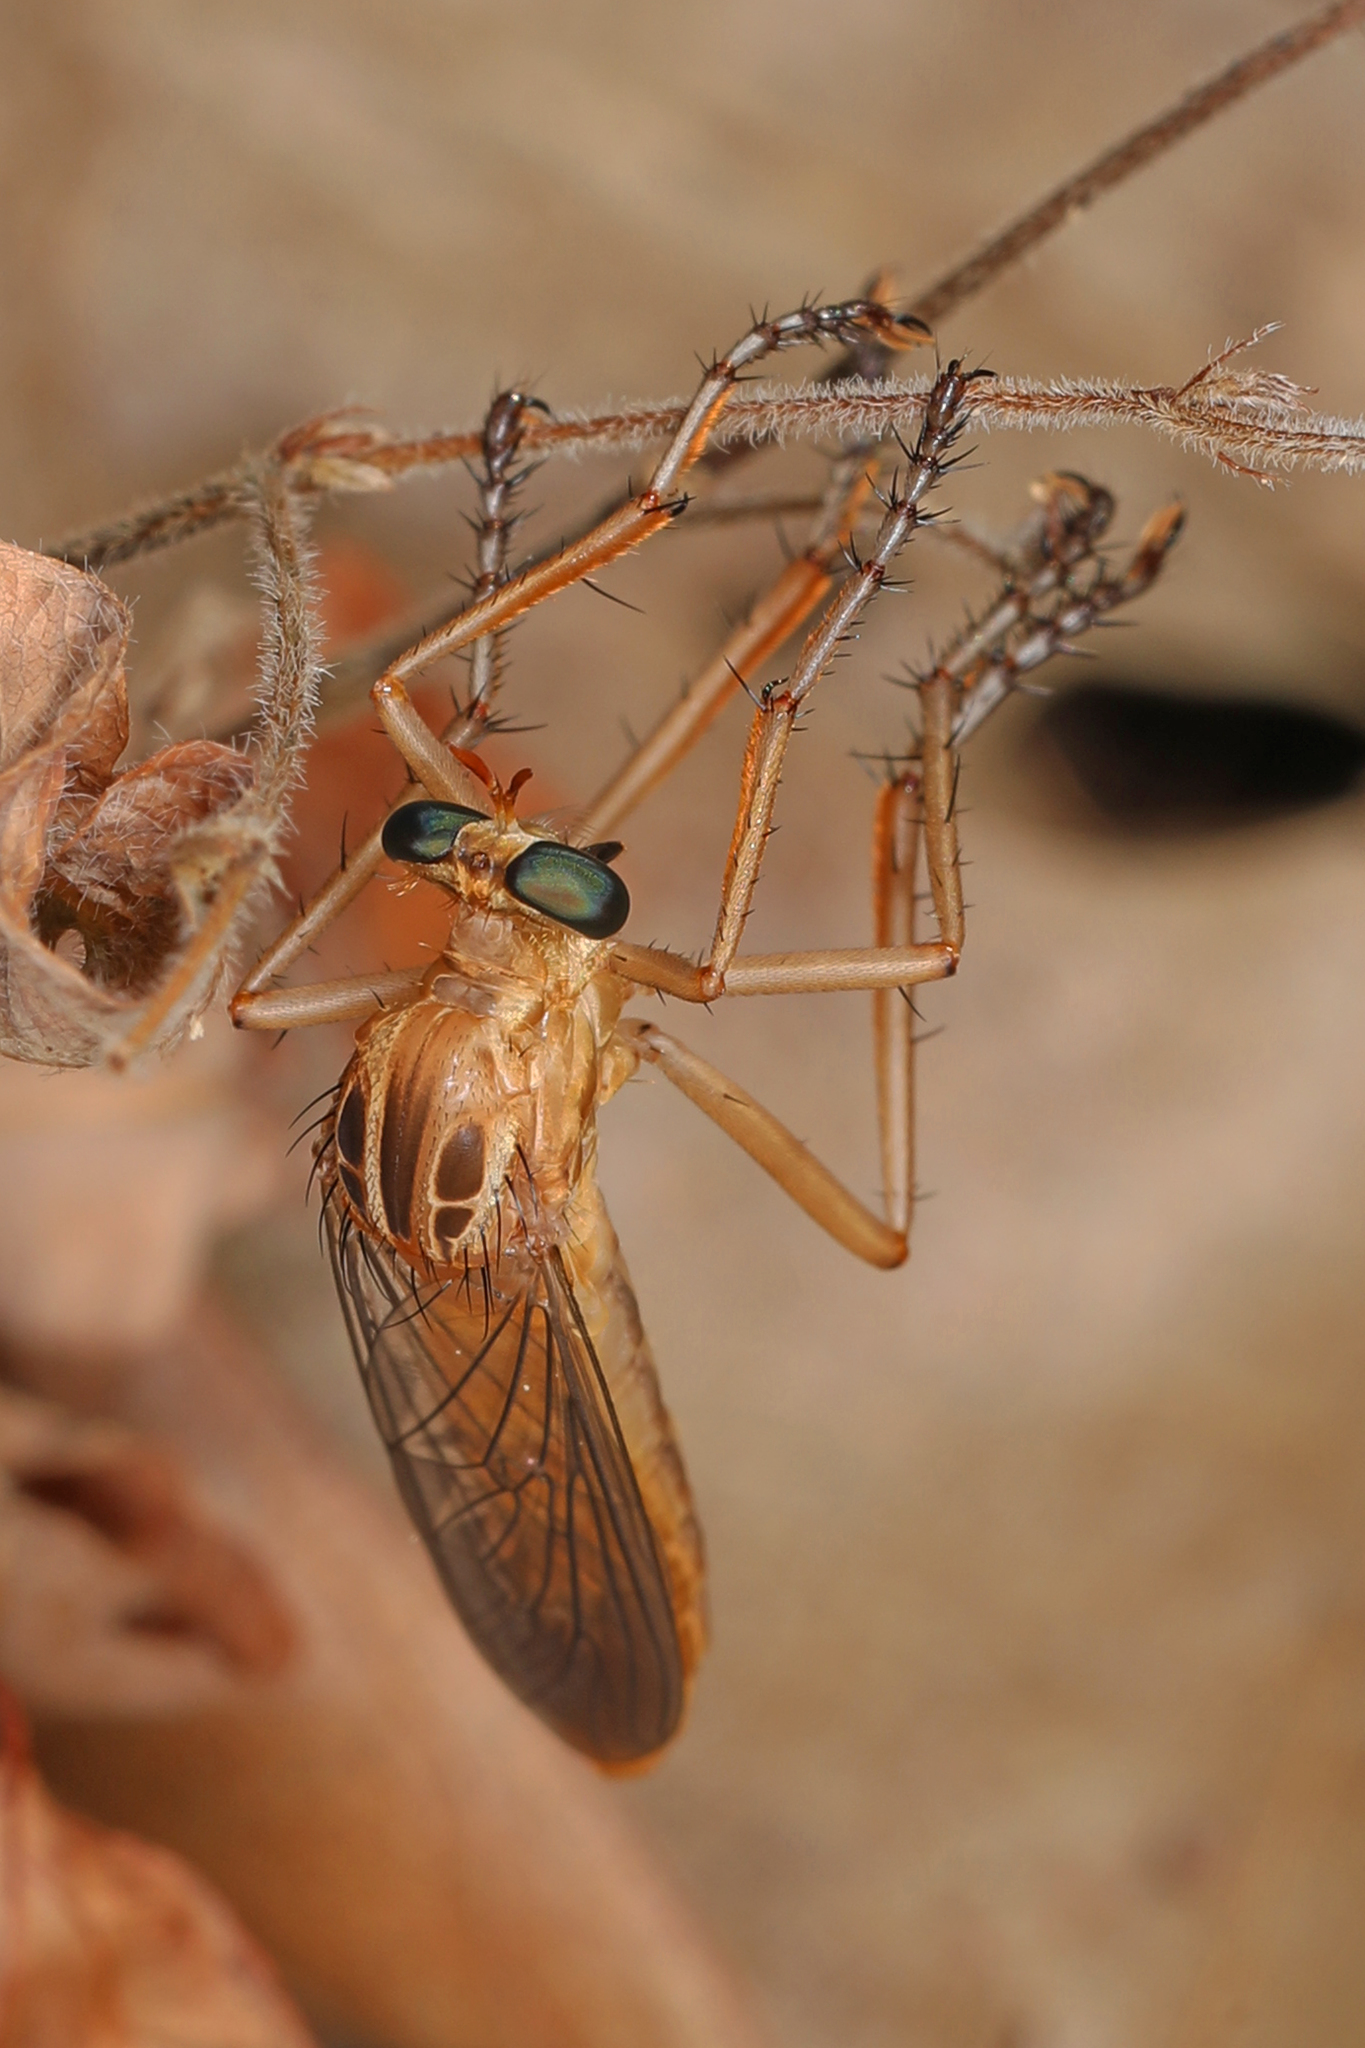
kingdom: Animalia
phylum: Arthropoda
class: Insecta
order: Diptera
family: Asilidae
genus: Diogmites
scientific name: Diogmites
